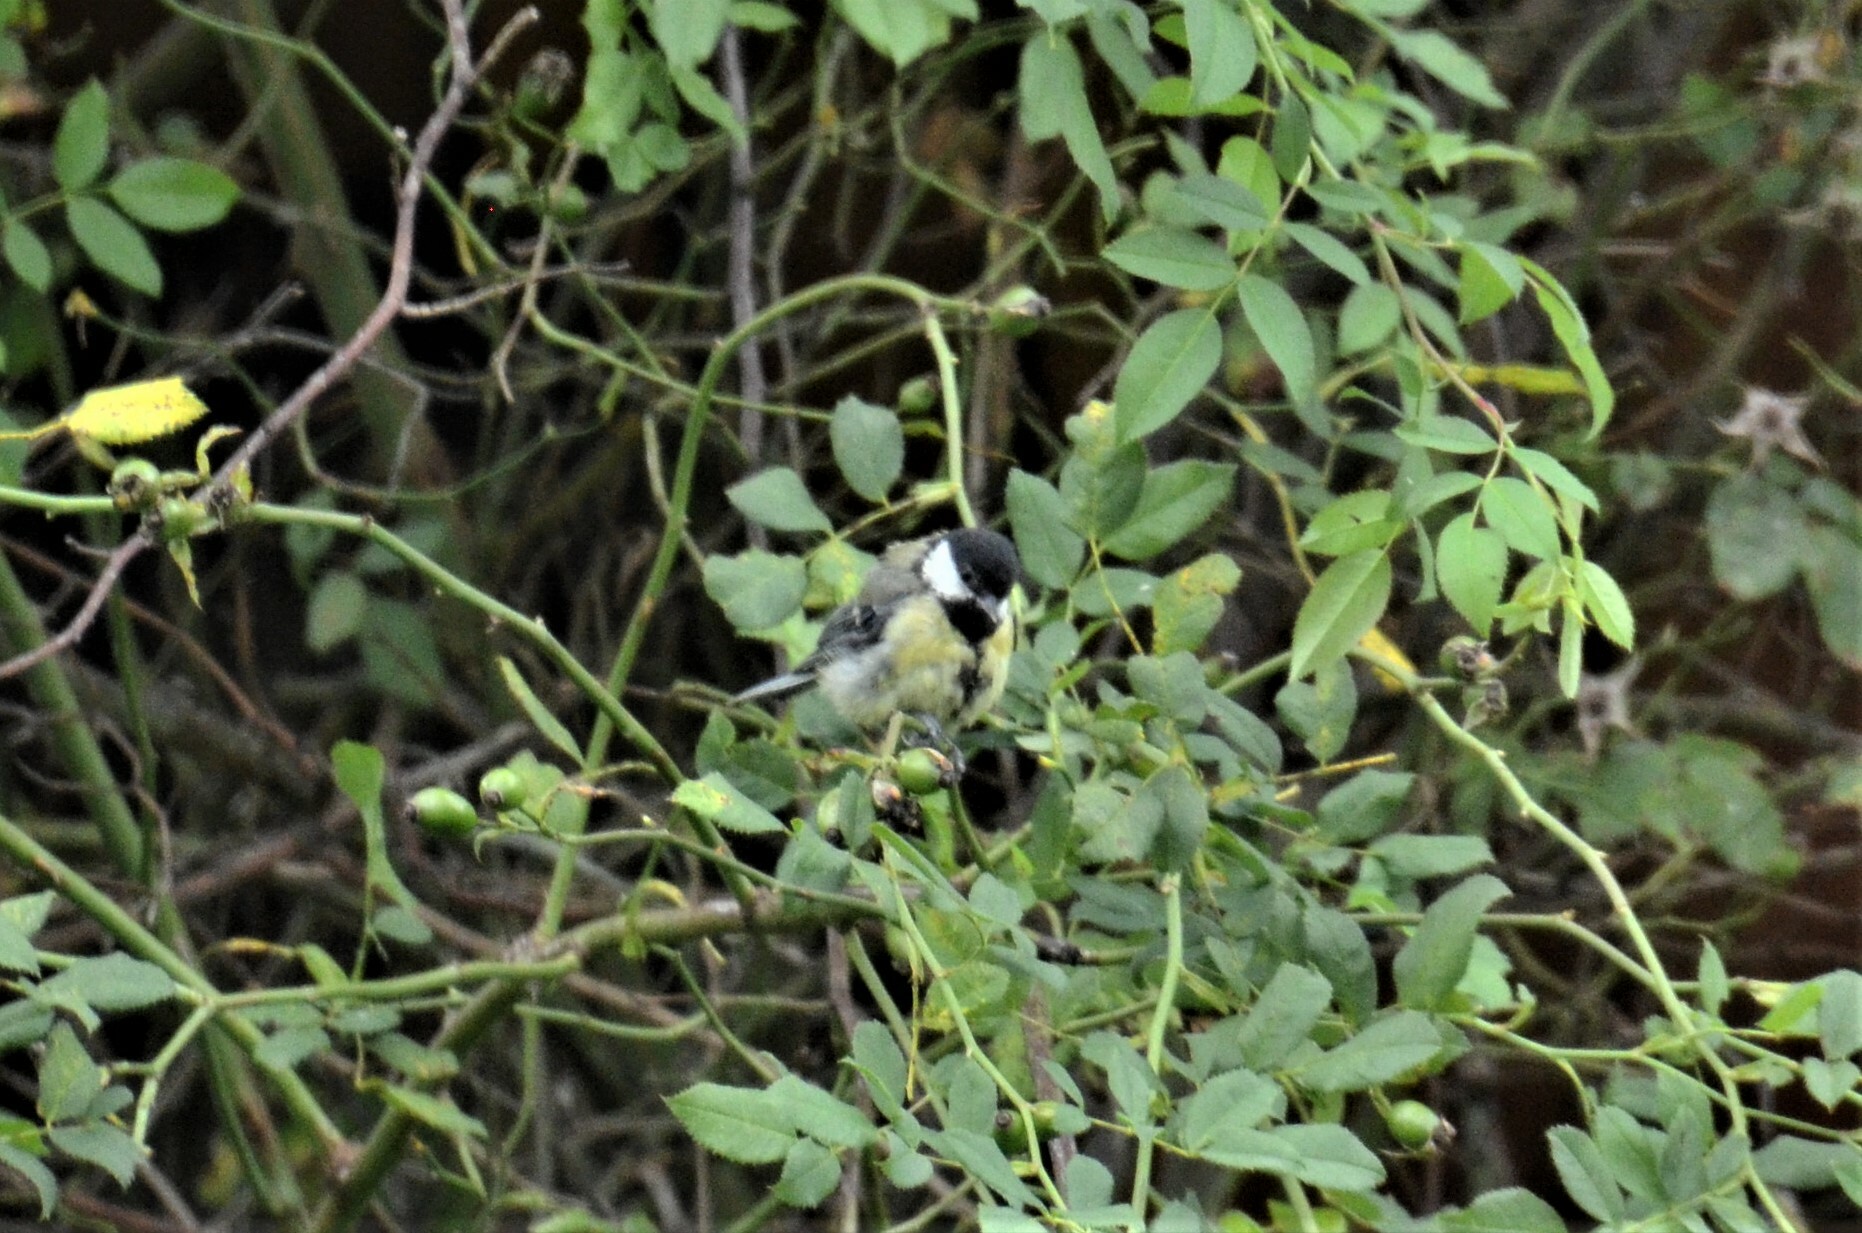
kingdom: Animalia
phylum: Chordata
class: Aves
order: Passeriformes
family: Paridae
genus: Parus
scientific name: Parus major
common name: Great tit
